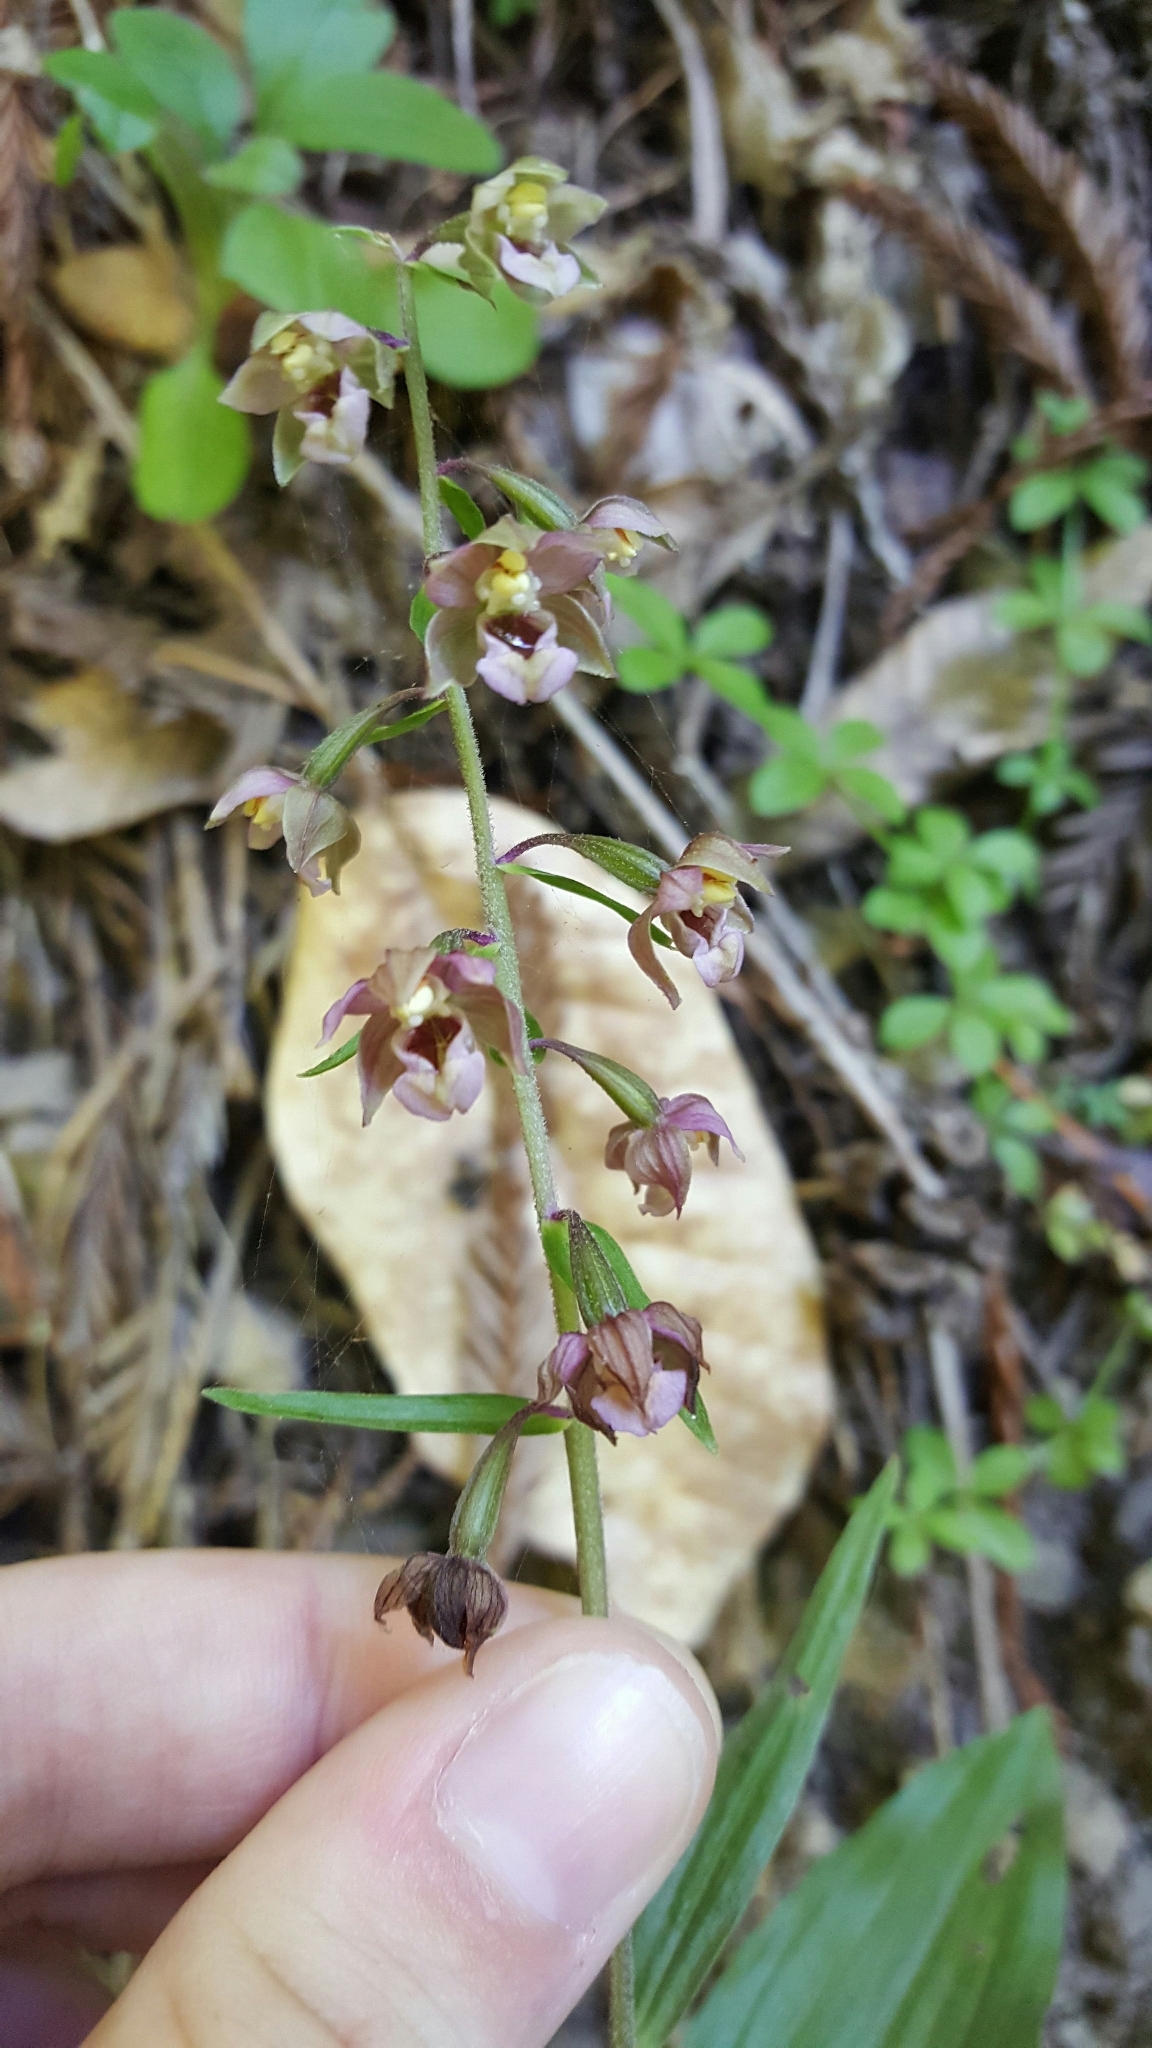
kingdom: Plantae
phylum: Tracheophyta
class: Liliopsida
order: Asparagales
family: Orchidaceae
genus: Epipactis
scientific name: Epipactis helleborine
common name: Broad-leaved helleborine
